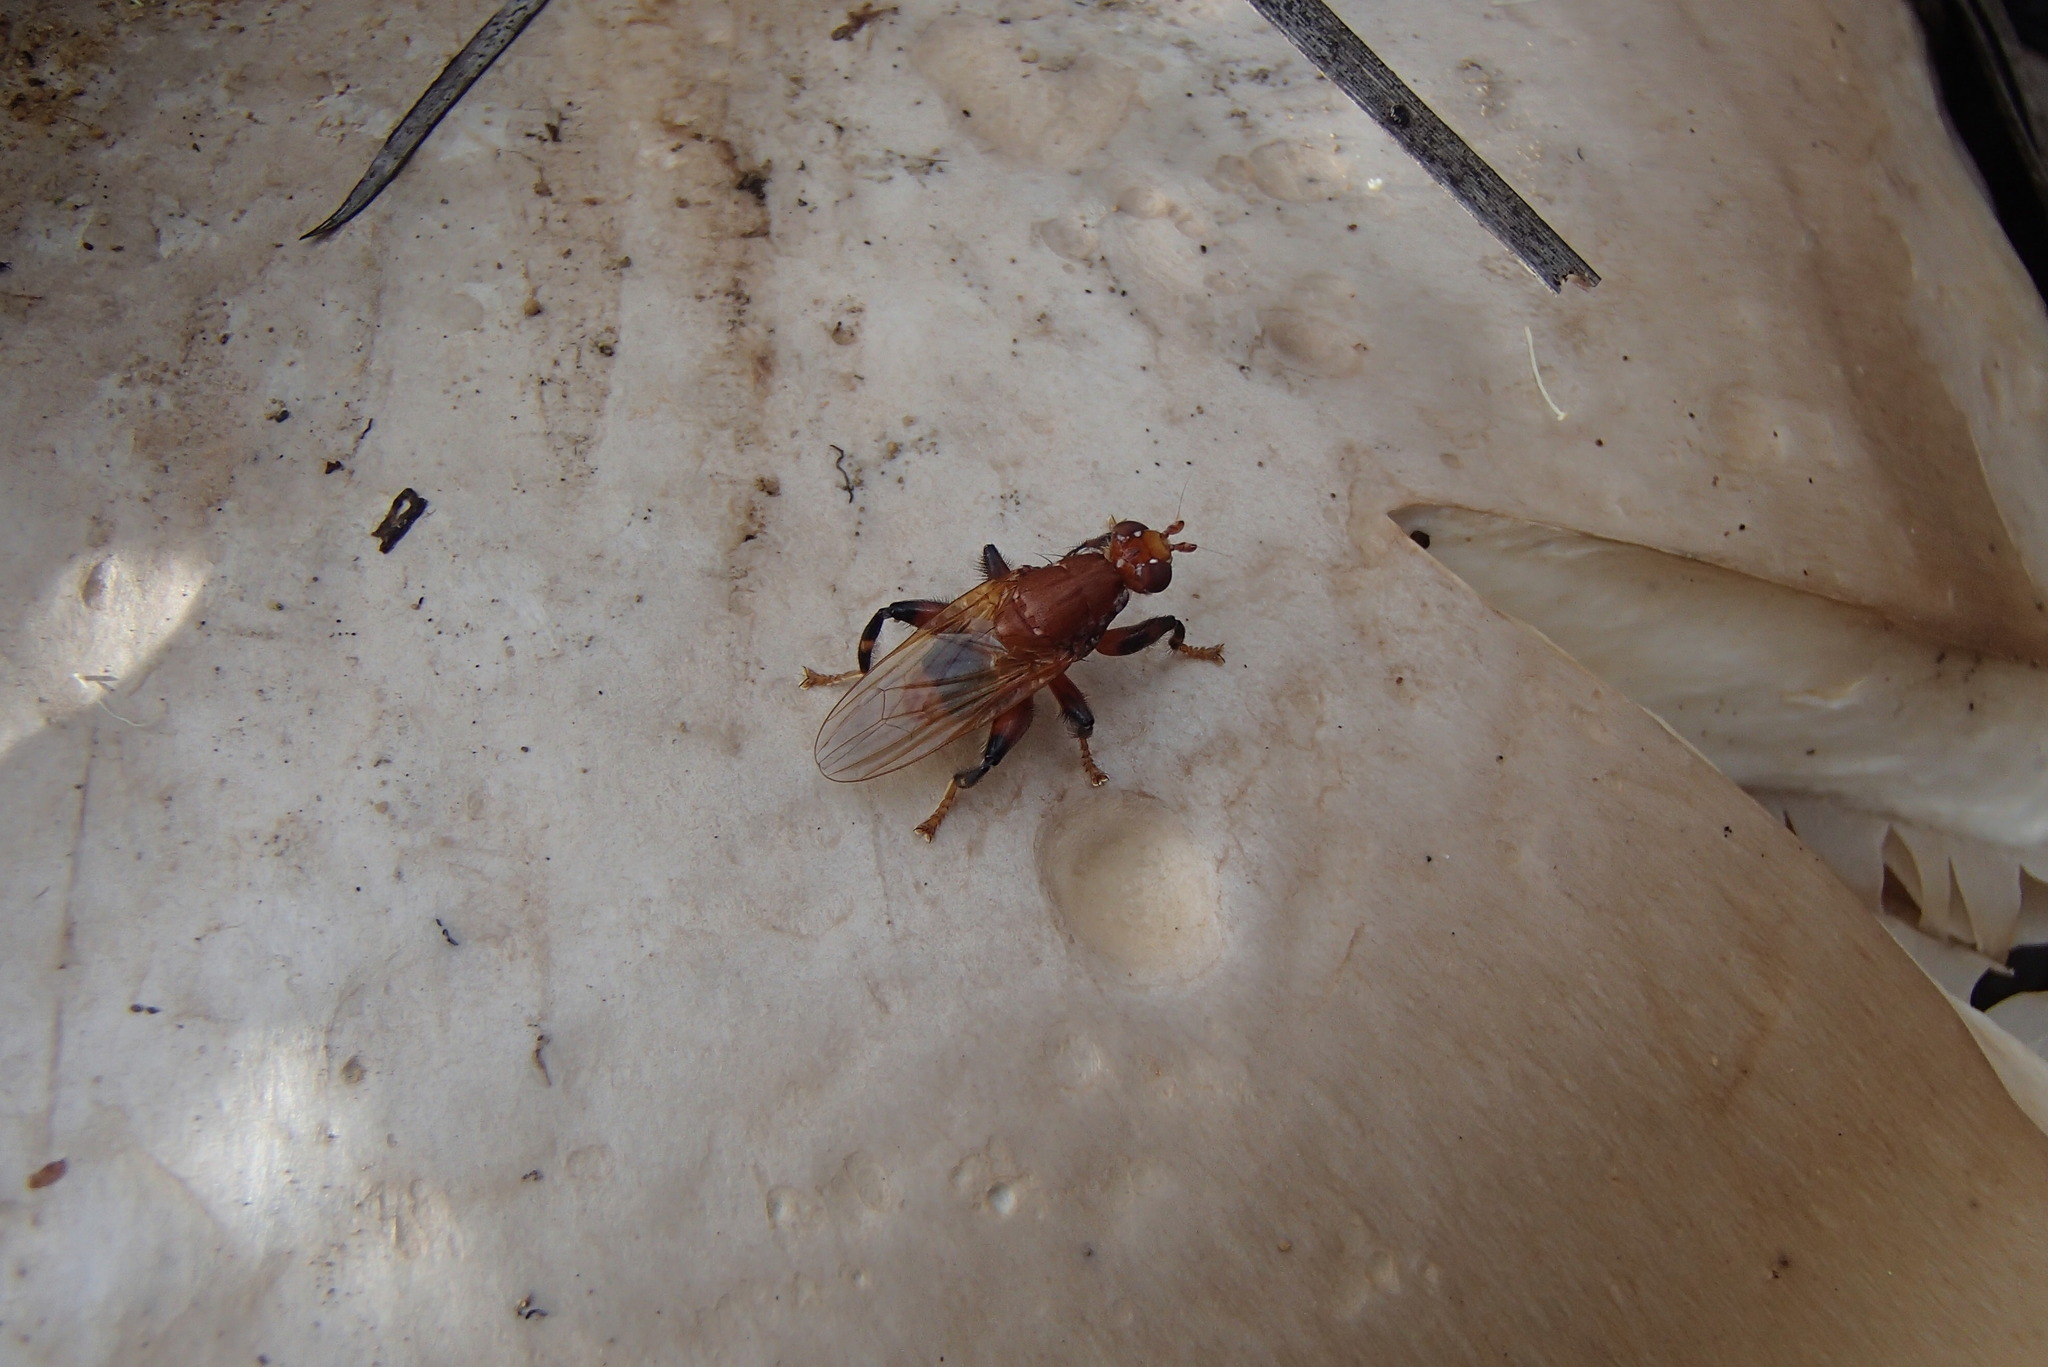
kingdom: Animalia
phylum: Arthropoda
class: Insecta
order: Diptera
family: Heleomyzidae
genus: Tapeigaster
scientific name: Tapeigaster argyrospila
